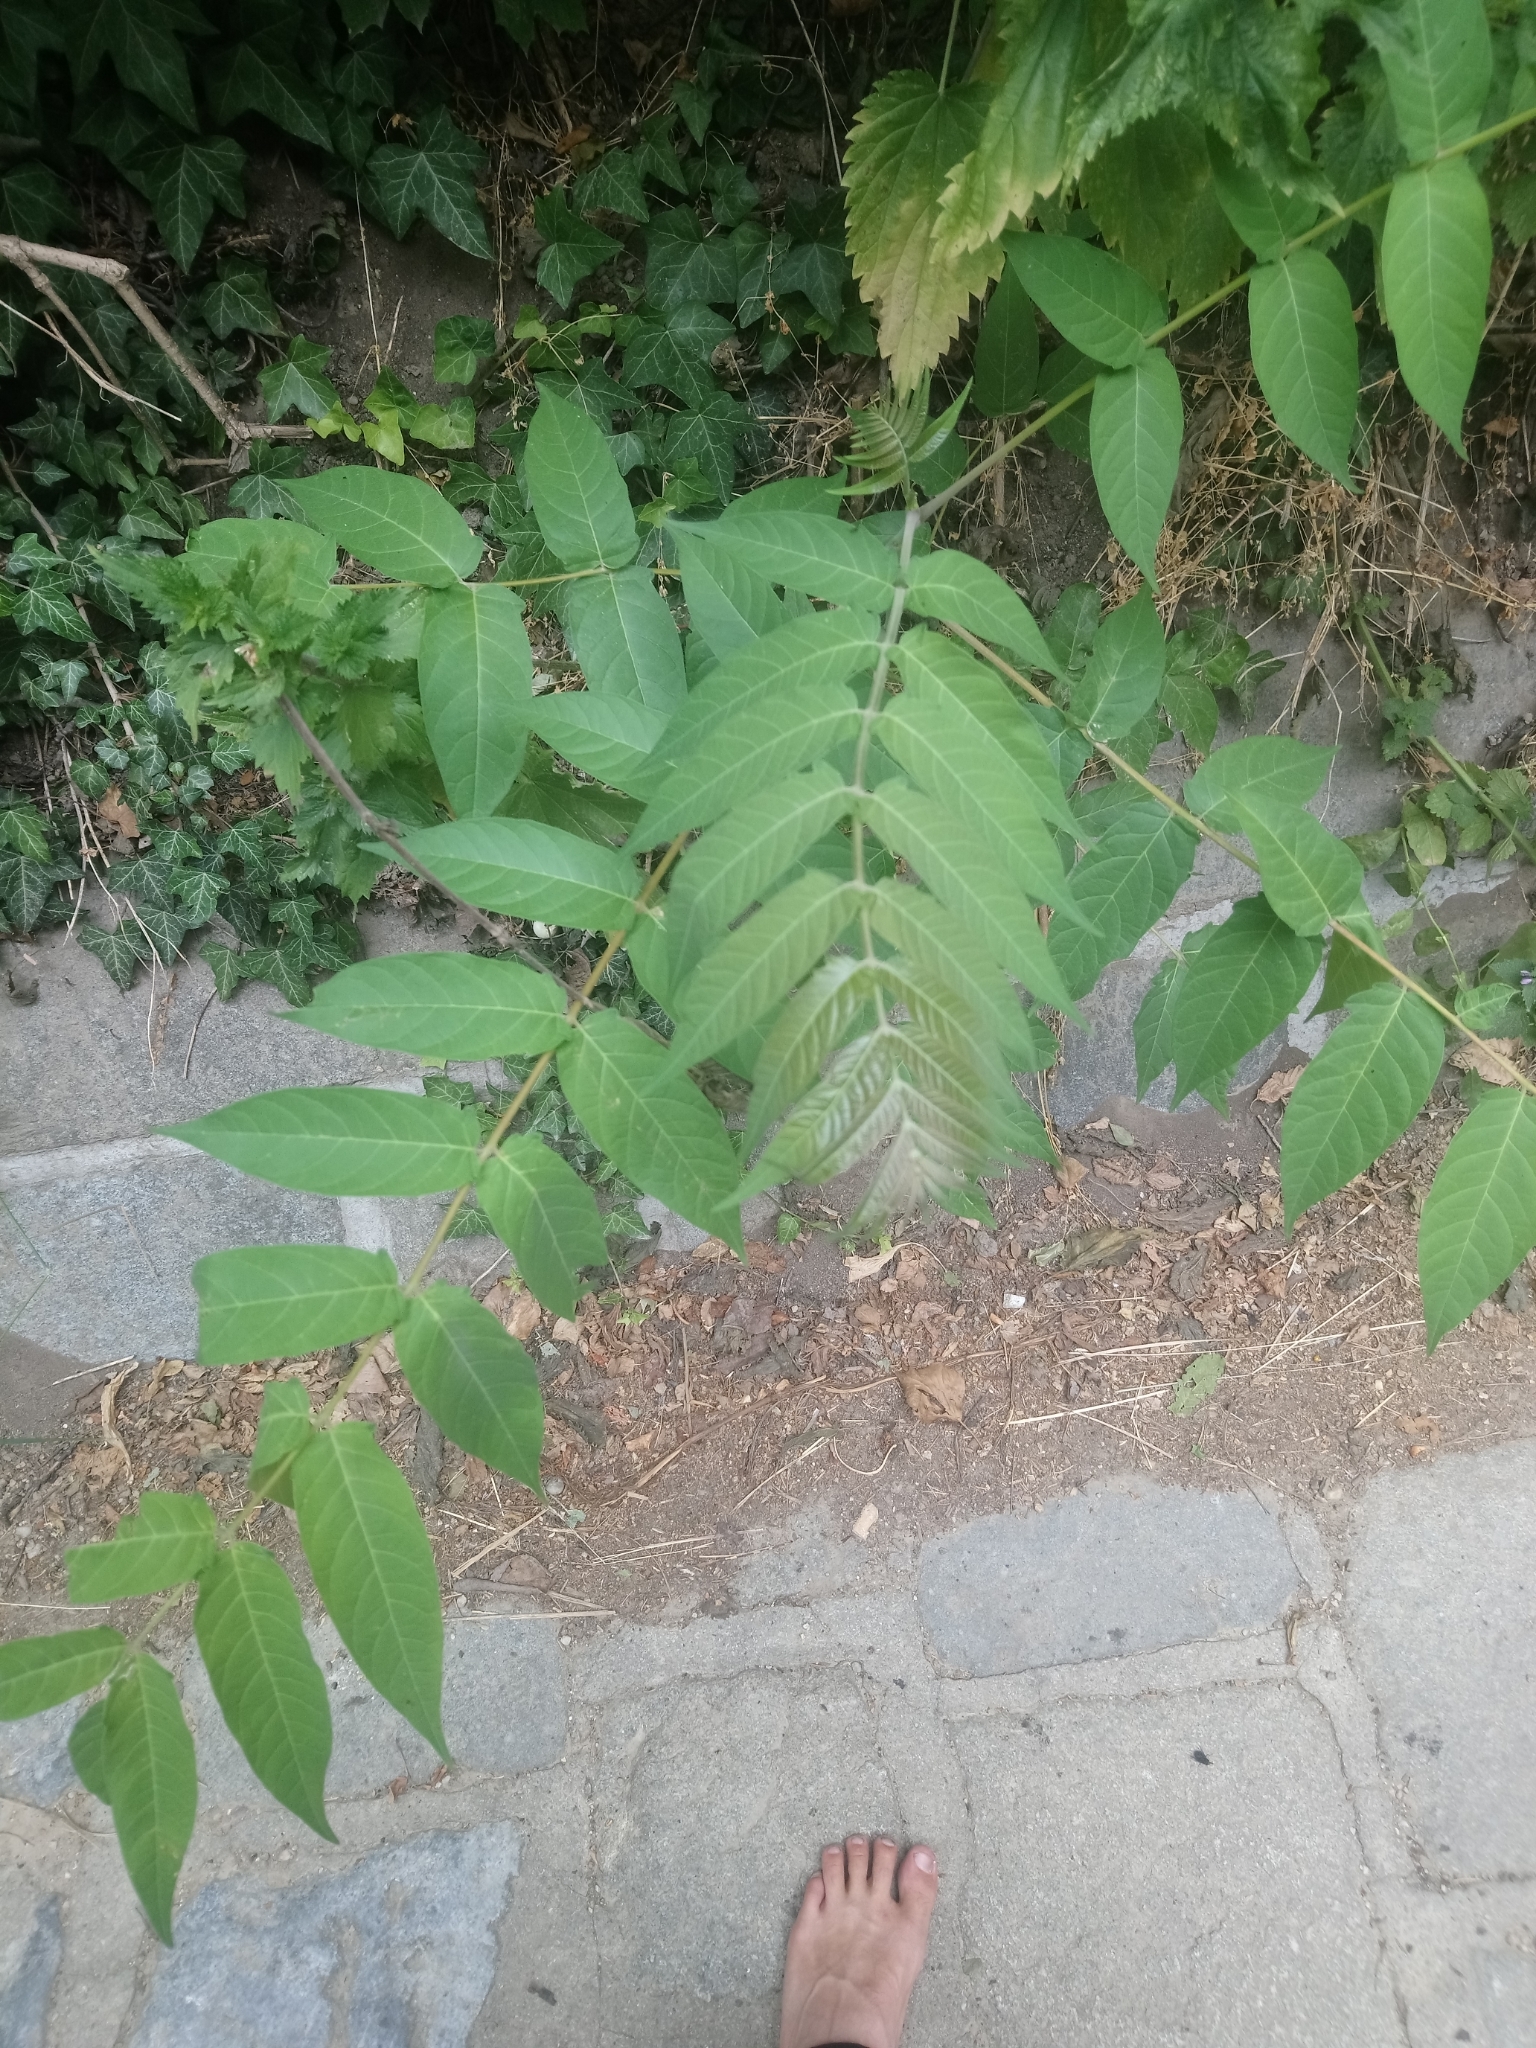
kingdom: Plantae
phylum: Tracheophyta
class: Magnoliopsida
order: Sapindales
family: Simaroubaceae
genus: Ailanthus
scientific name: Ailanthus altissima
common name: Tree-of-heaven
